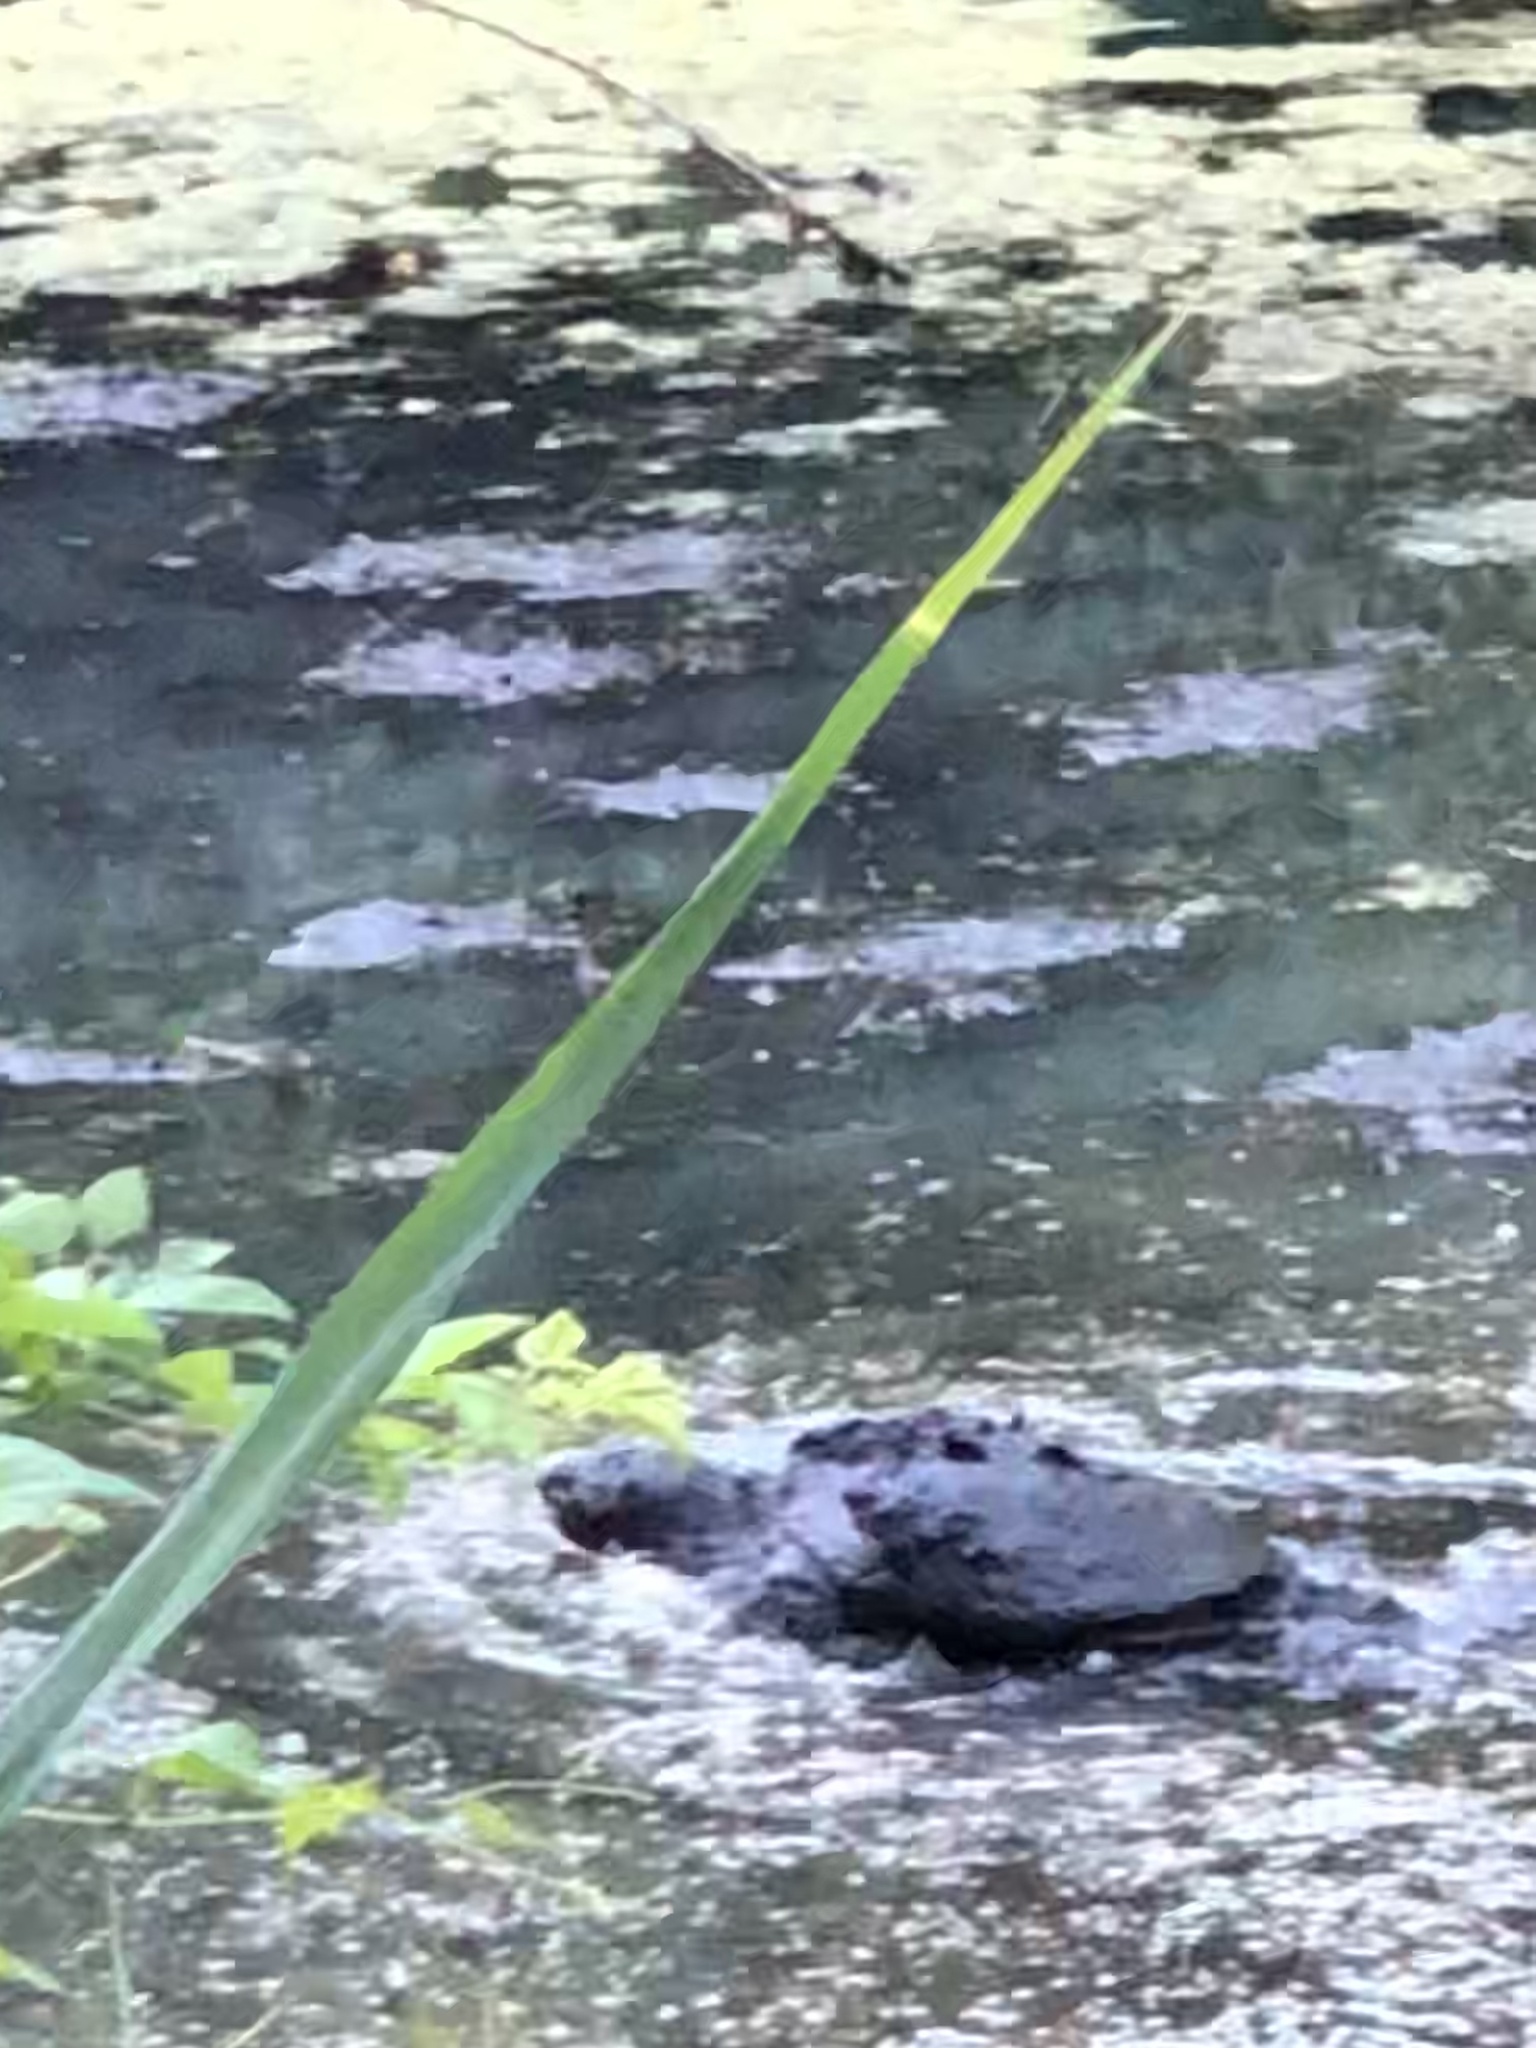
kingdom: Animalia
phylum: Chordata
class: Testudines
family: Chelydridae
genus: Chelydra
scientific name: Chelydra serpentina
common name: Common snapping turtle
